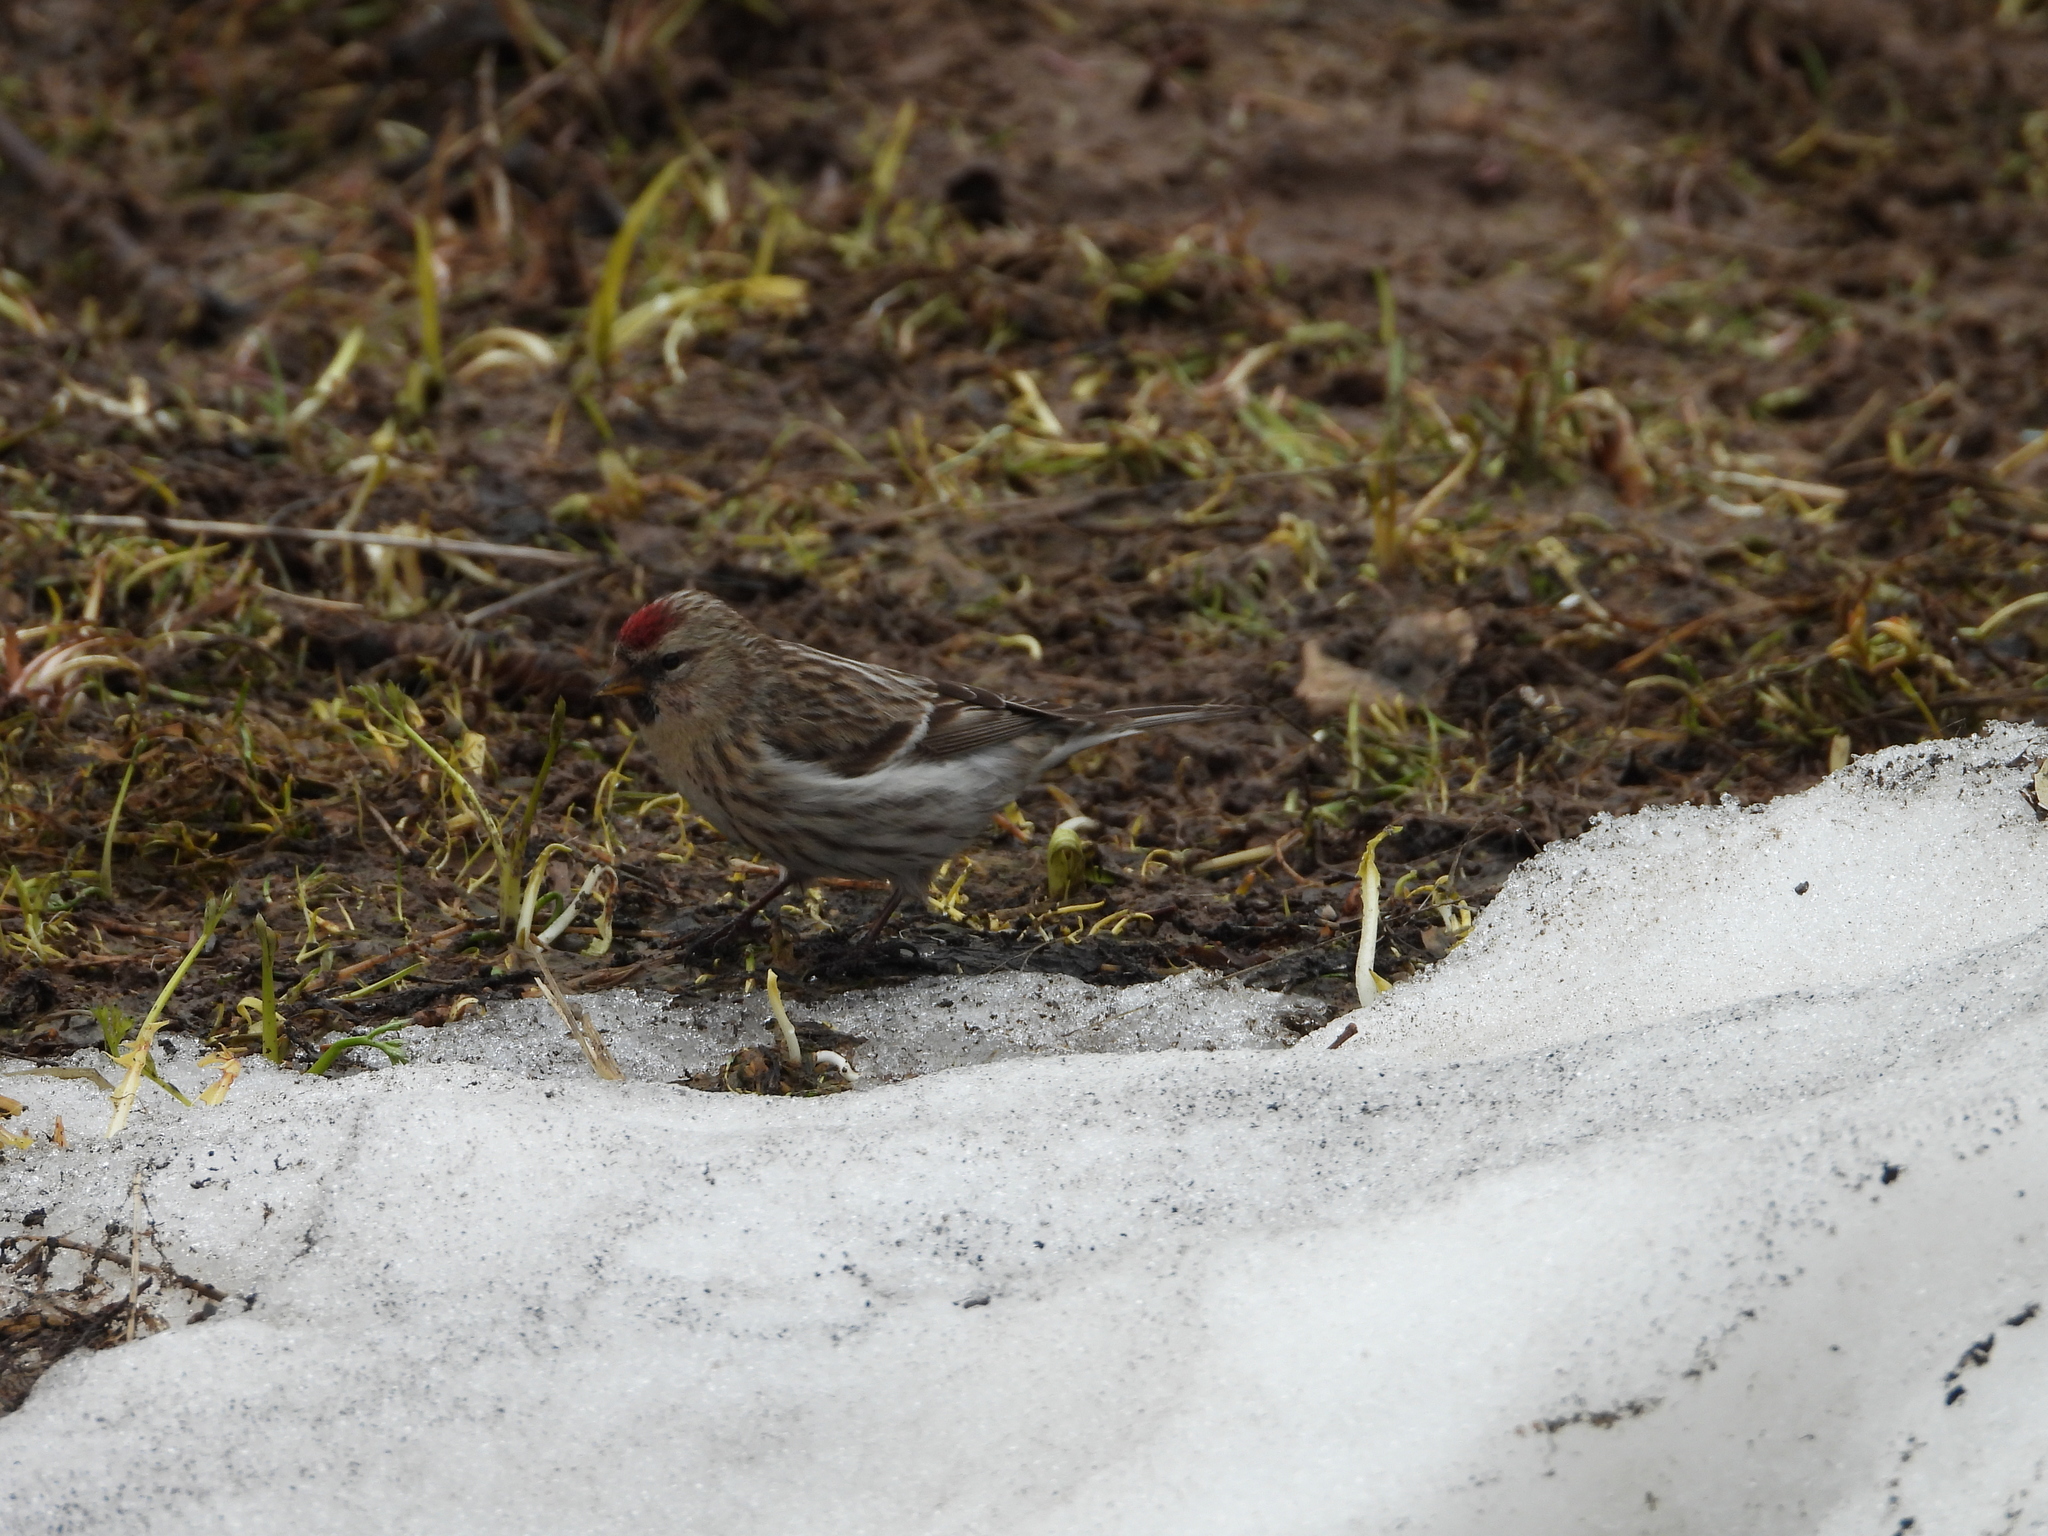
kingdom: Animalia
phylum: Chordata
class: Aves
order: Passeriformes
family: Fringillidae
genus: Acanthis
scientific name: Acanthis flammea
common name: Common redpoll
